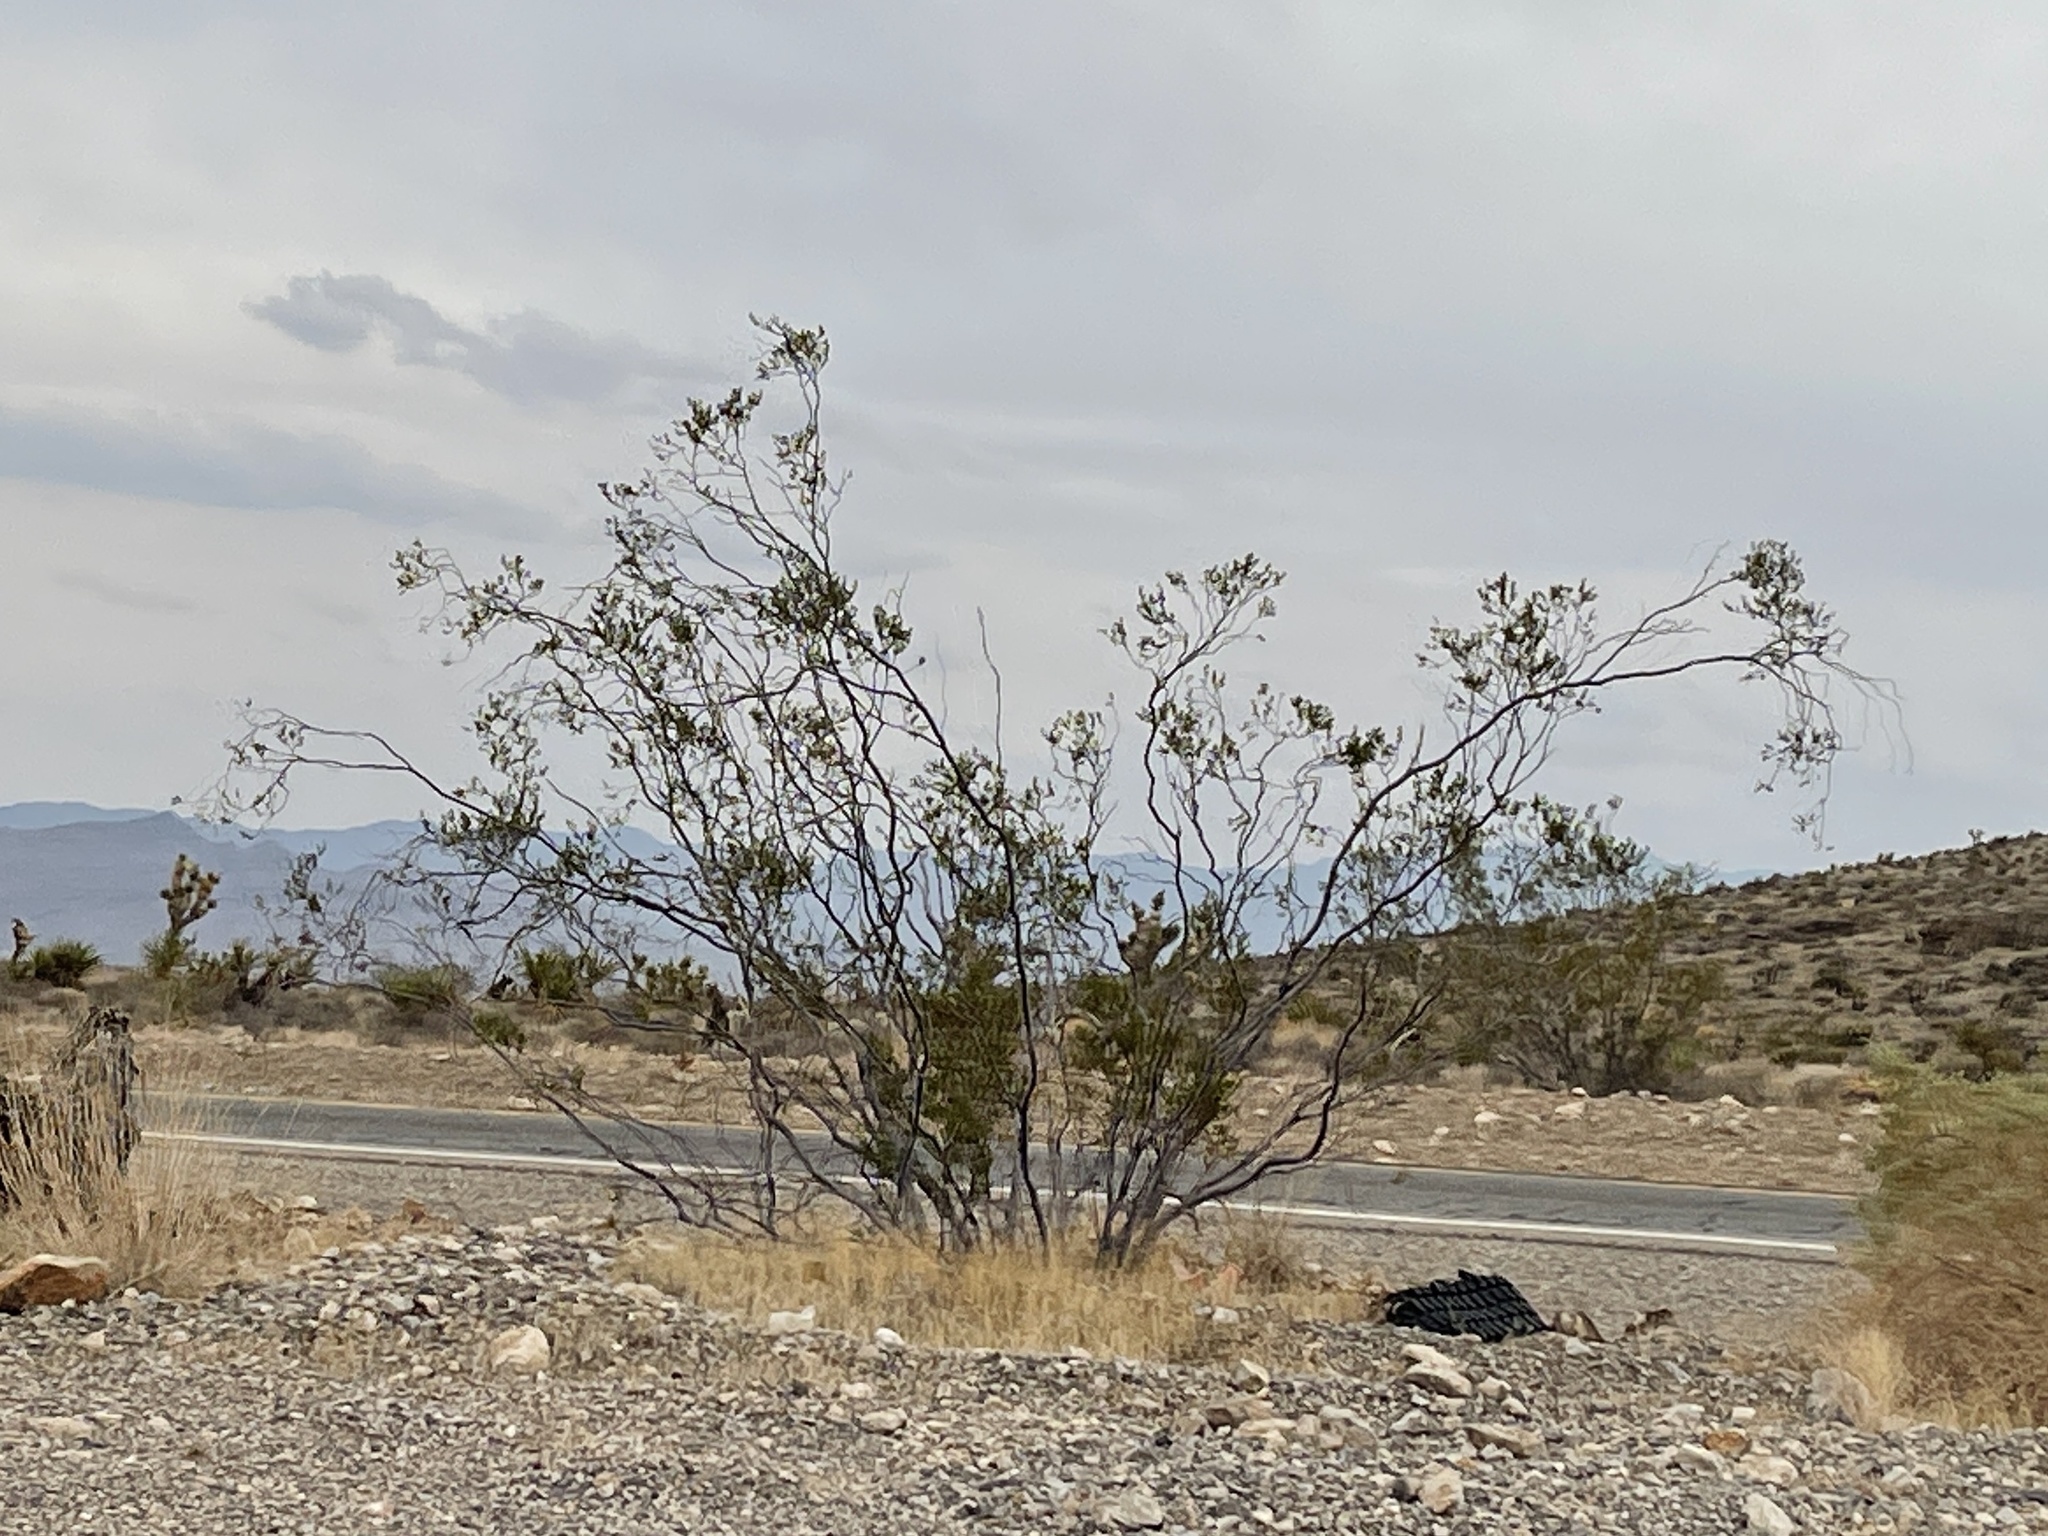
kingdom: Plantae
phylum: Tracheophyta
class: Magnoliopsida
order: Zygophyllales
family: Zygophyllaceae
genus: Larrea
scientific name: Larrea tridentata
